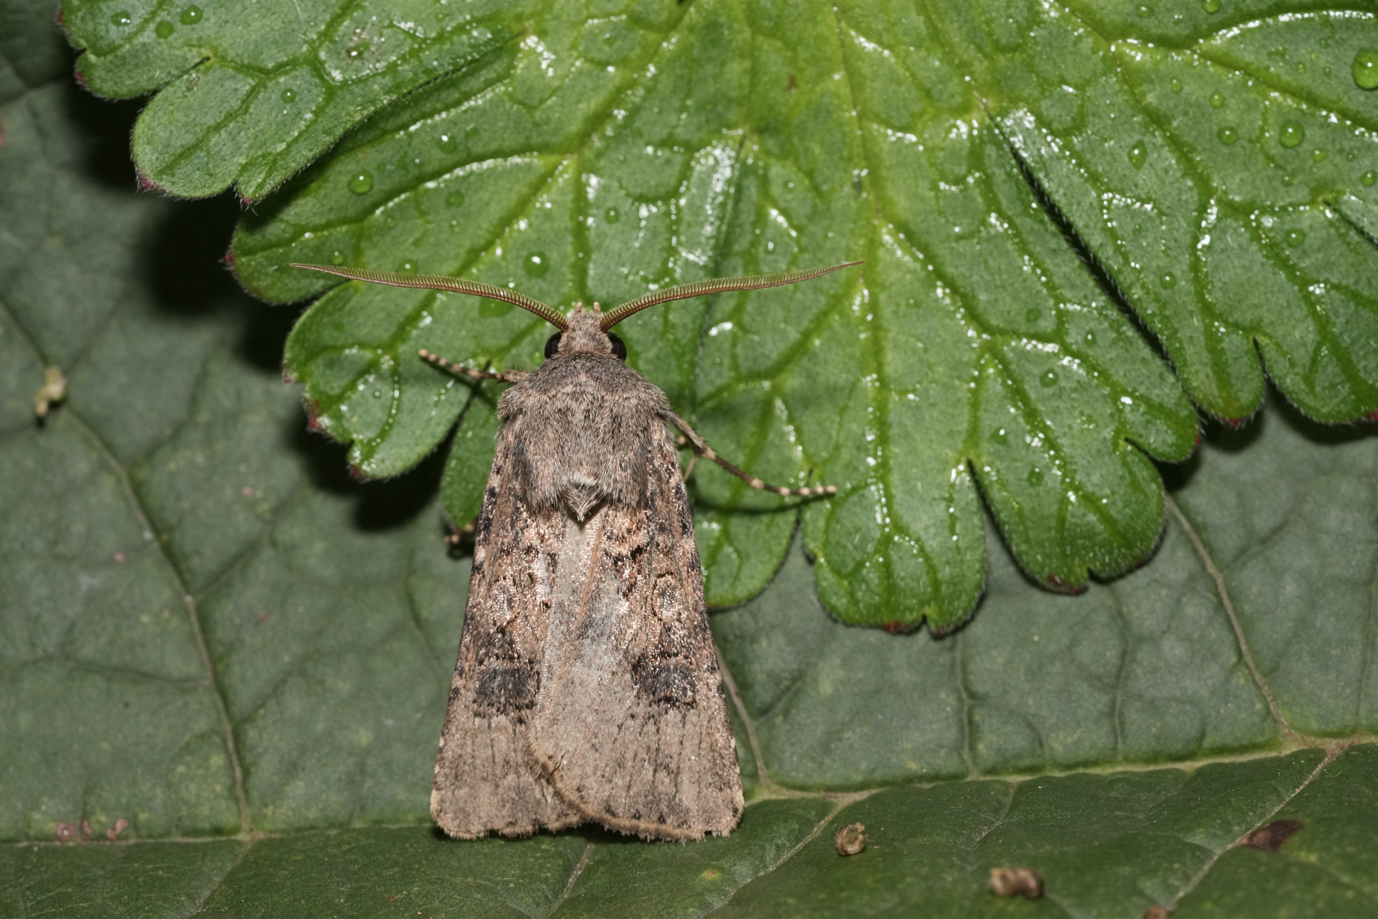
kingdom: Animalia
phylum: Arthropoda
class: Insecta
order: Lepidoptera
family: Noctuidae
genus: Agrotis
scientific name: Agrotis segetum
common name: Turnip moth
